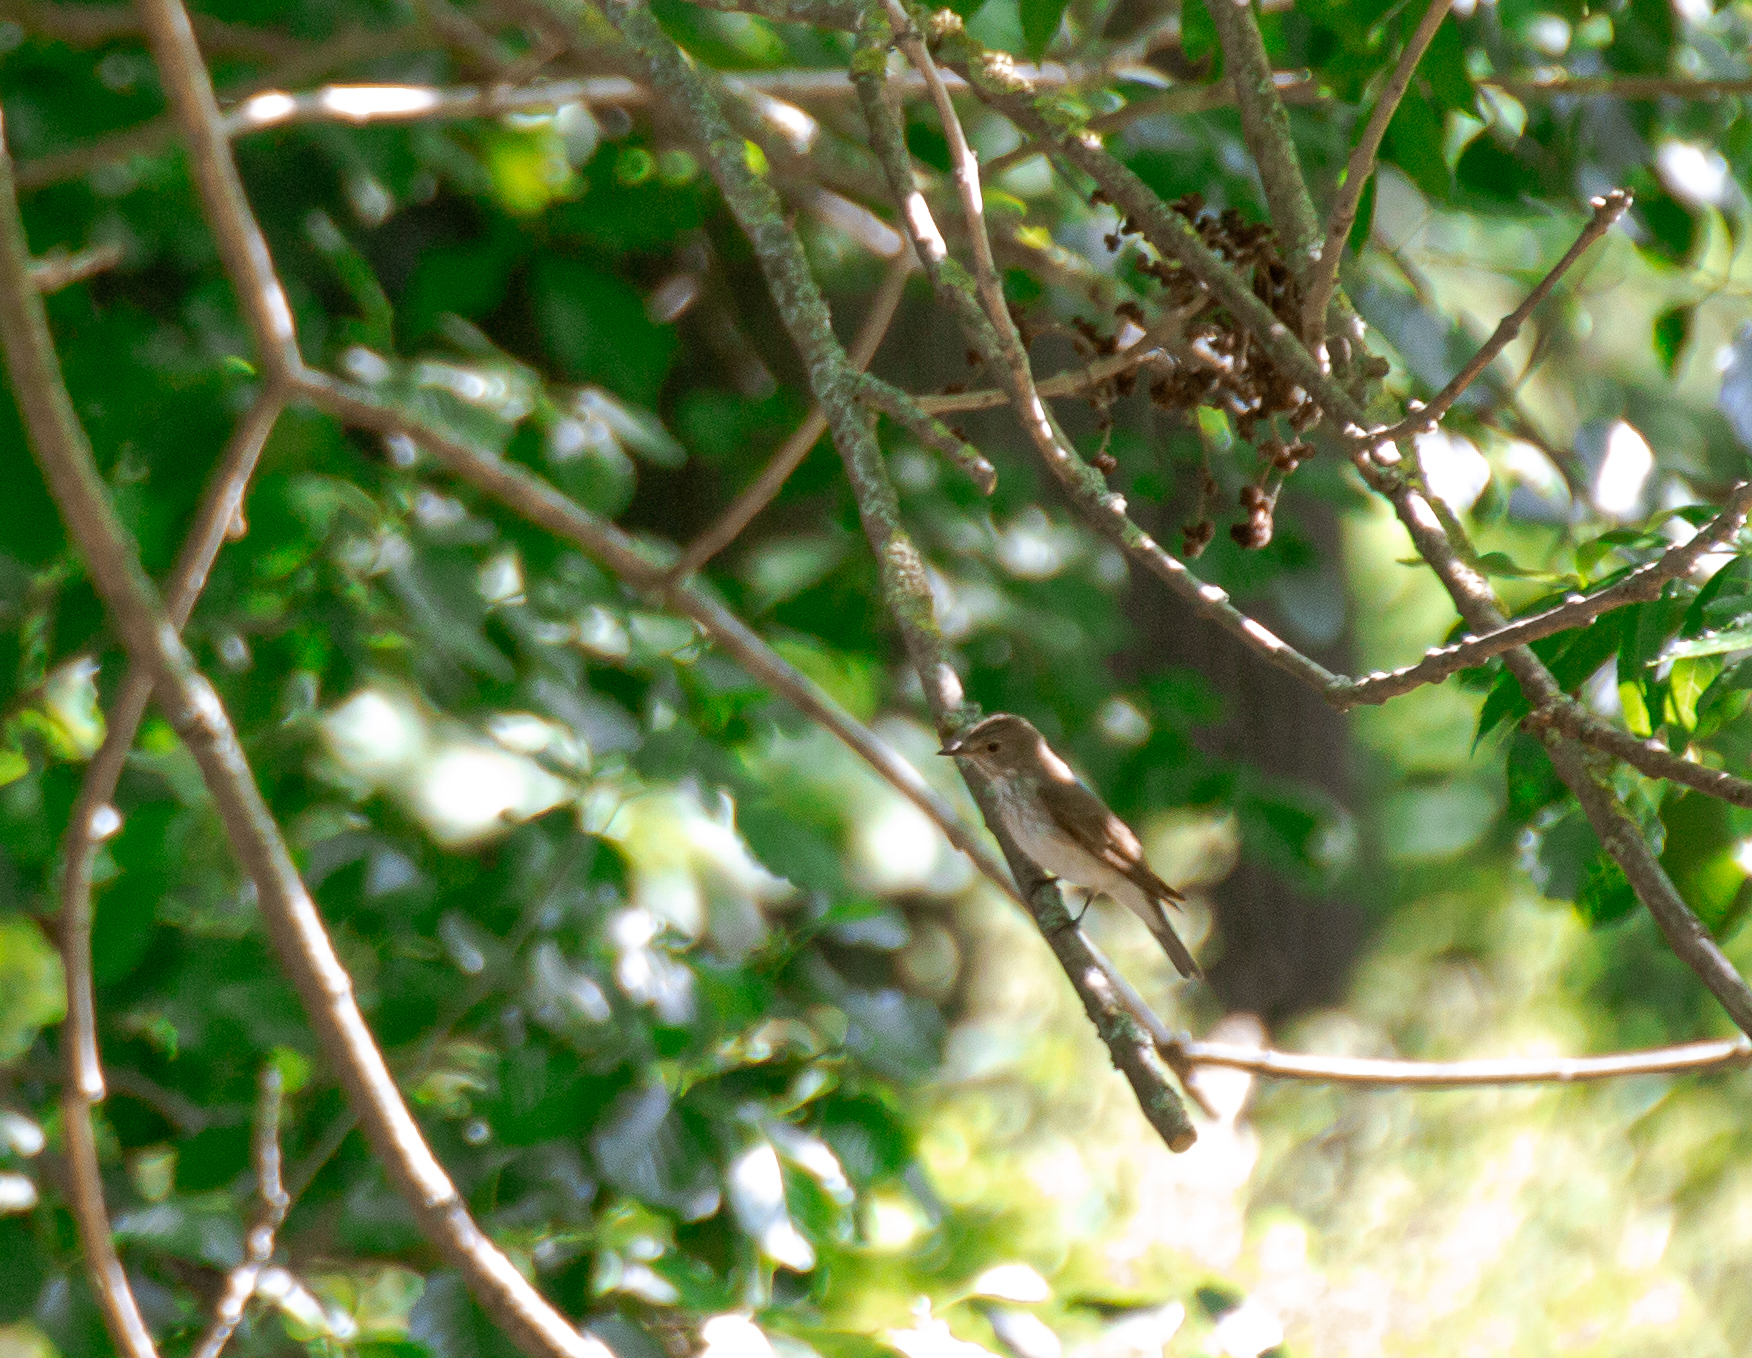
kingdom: Animalia
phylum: Chordata
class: Aves
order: Passeriformes
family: Muscicapidae
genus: Muscicapa
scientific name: Muscicapa striata
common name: Spotted flycatcher
